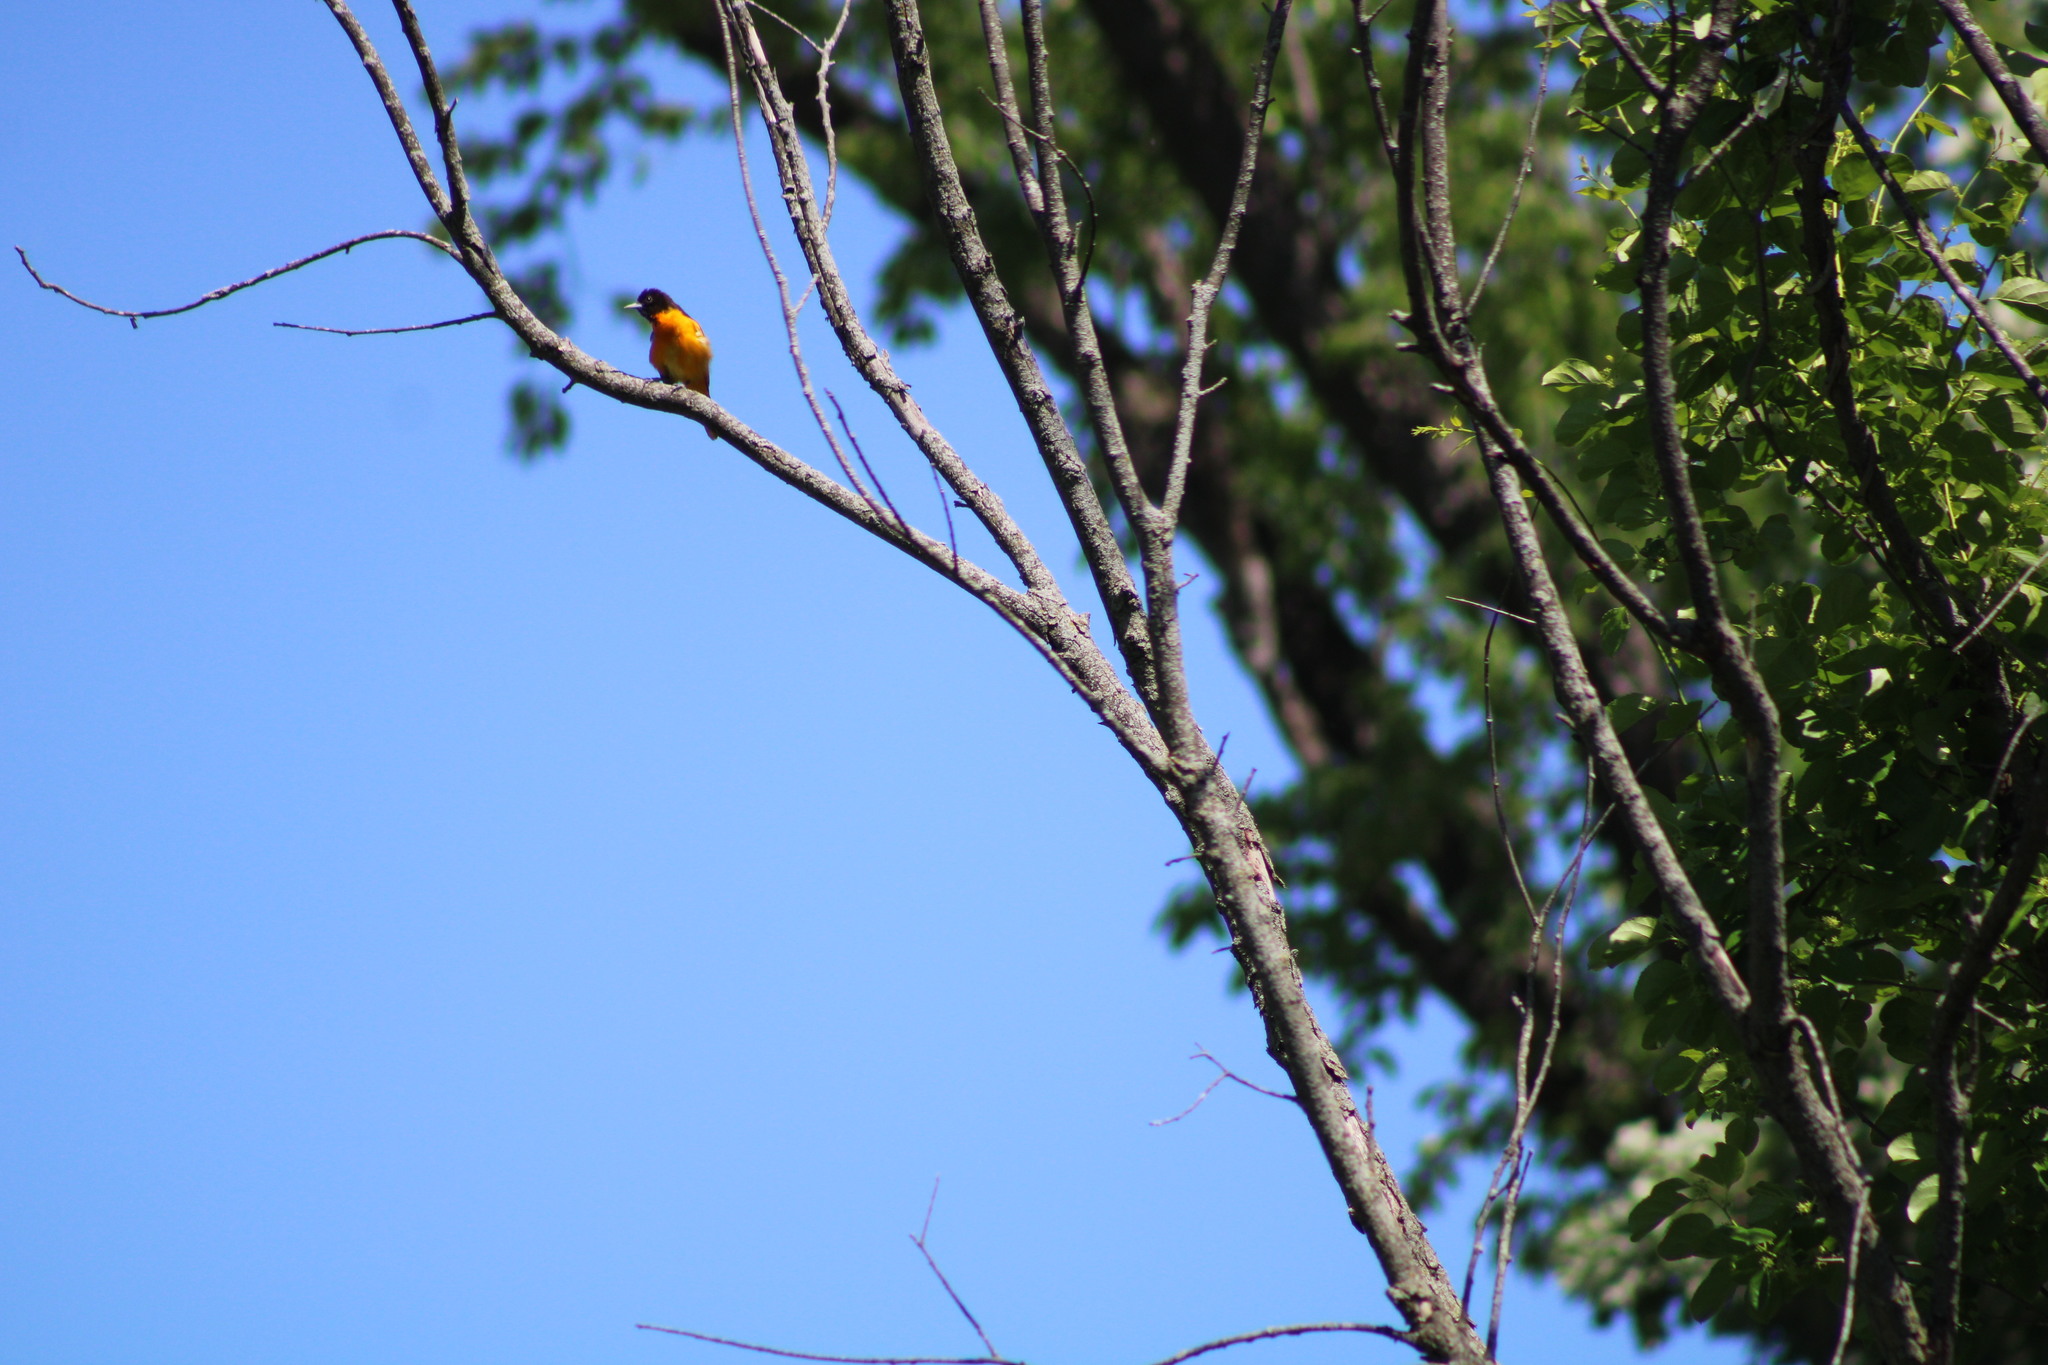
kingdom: Animalia
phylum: Chordata
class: Aves
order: Passeriformes
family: Icteridae
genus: Icterus
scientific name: Icterus galbula
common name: Baltimore oriole
